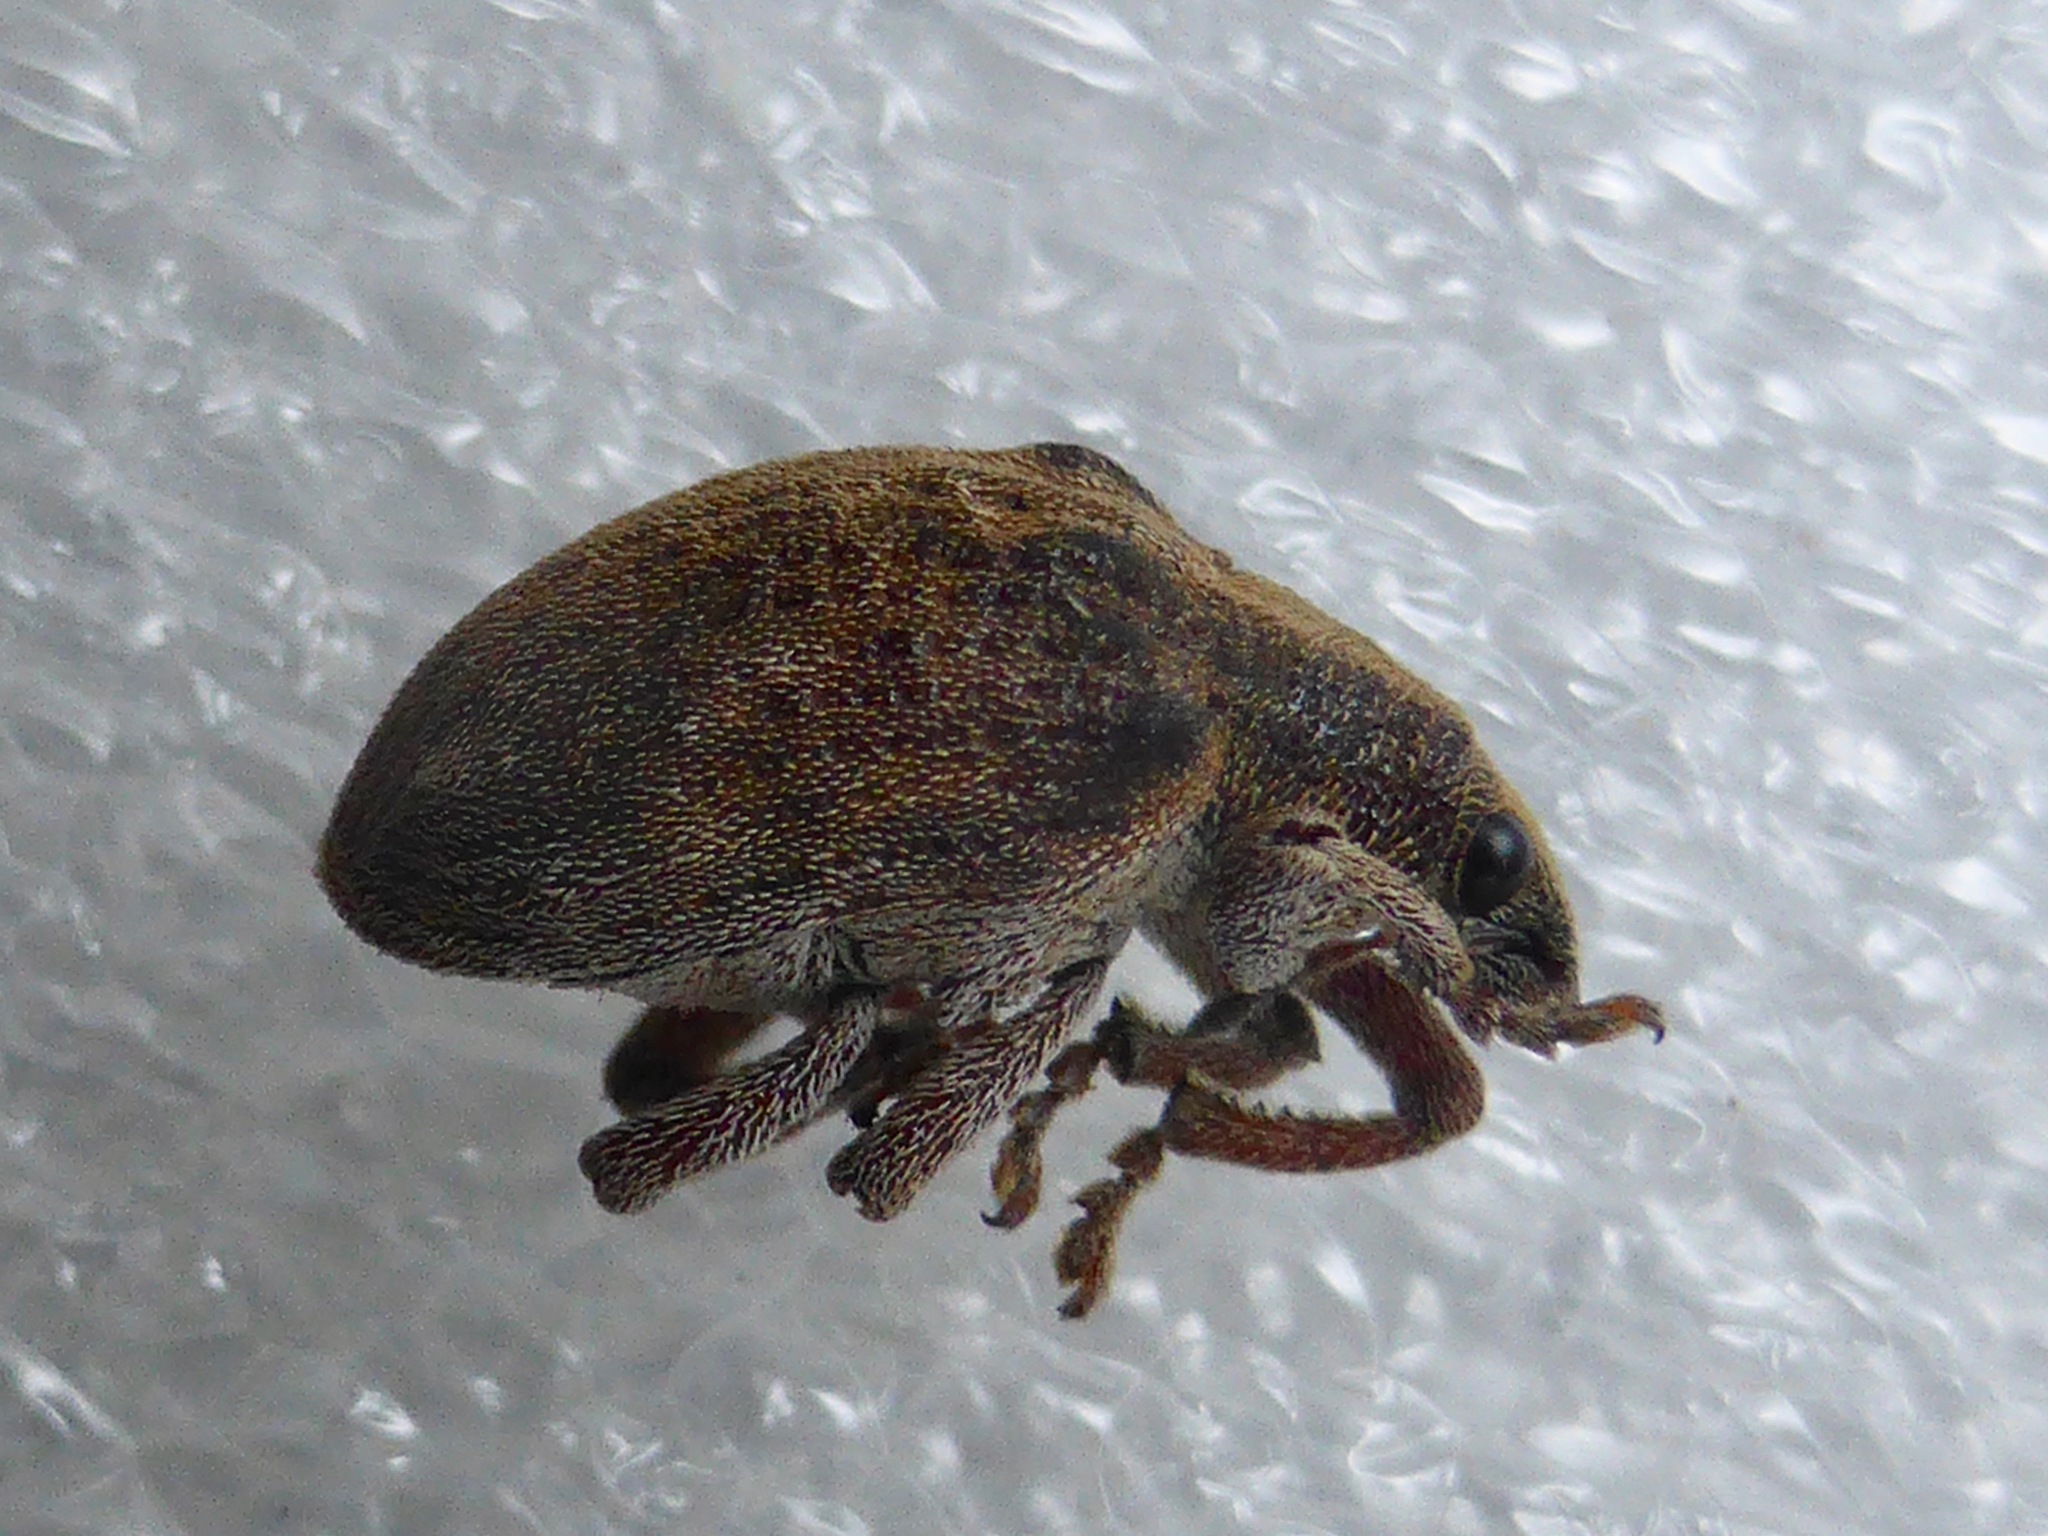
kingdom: Animalia
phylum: Arthropoda
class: Insecta
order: Coleoptera
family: Curculionidae
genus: Gonipterus
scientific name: Gonipterus platensis
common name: Eucalyptus snout beetle
